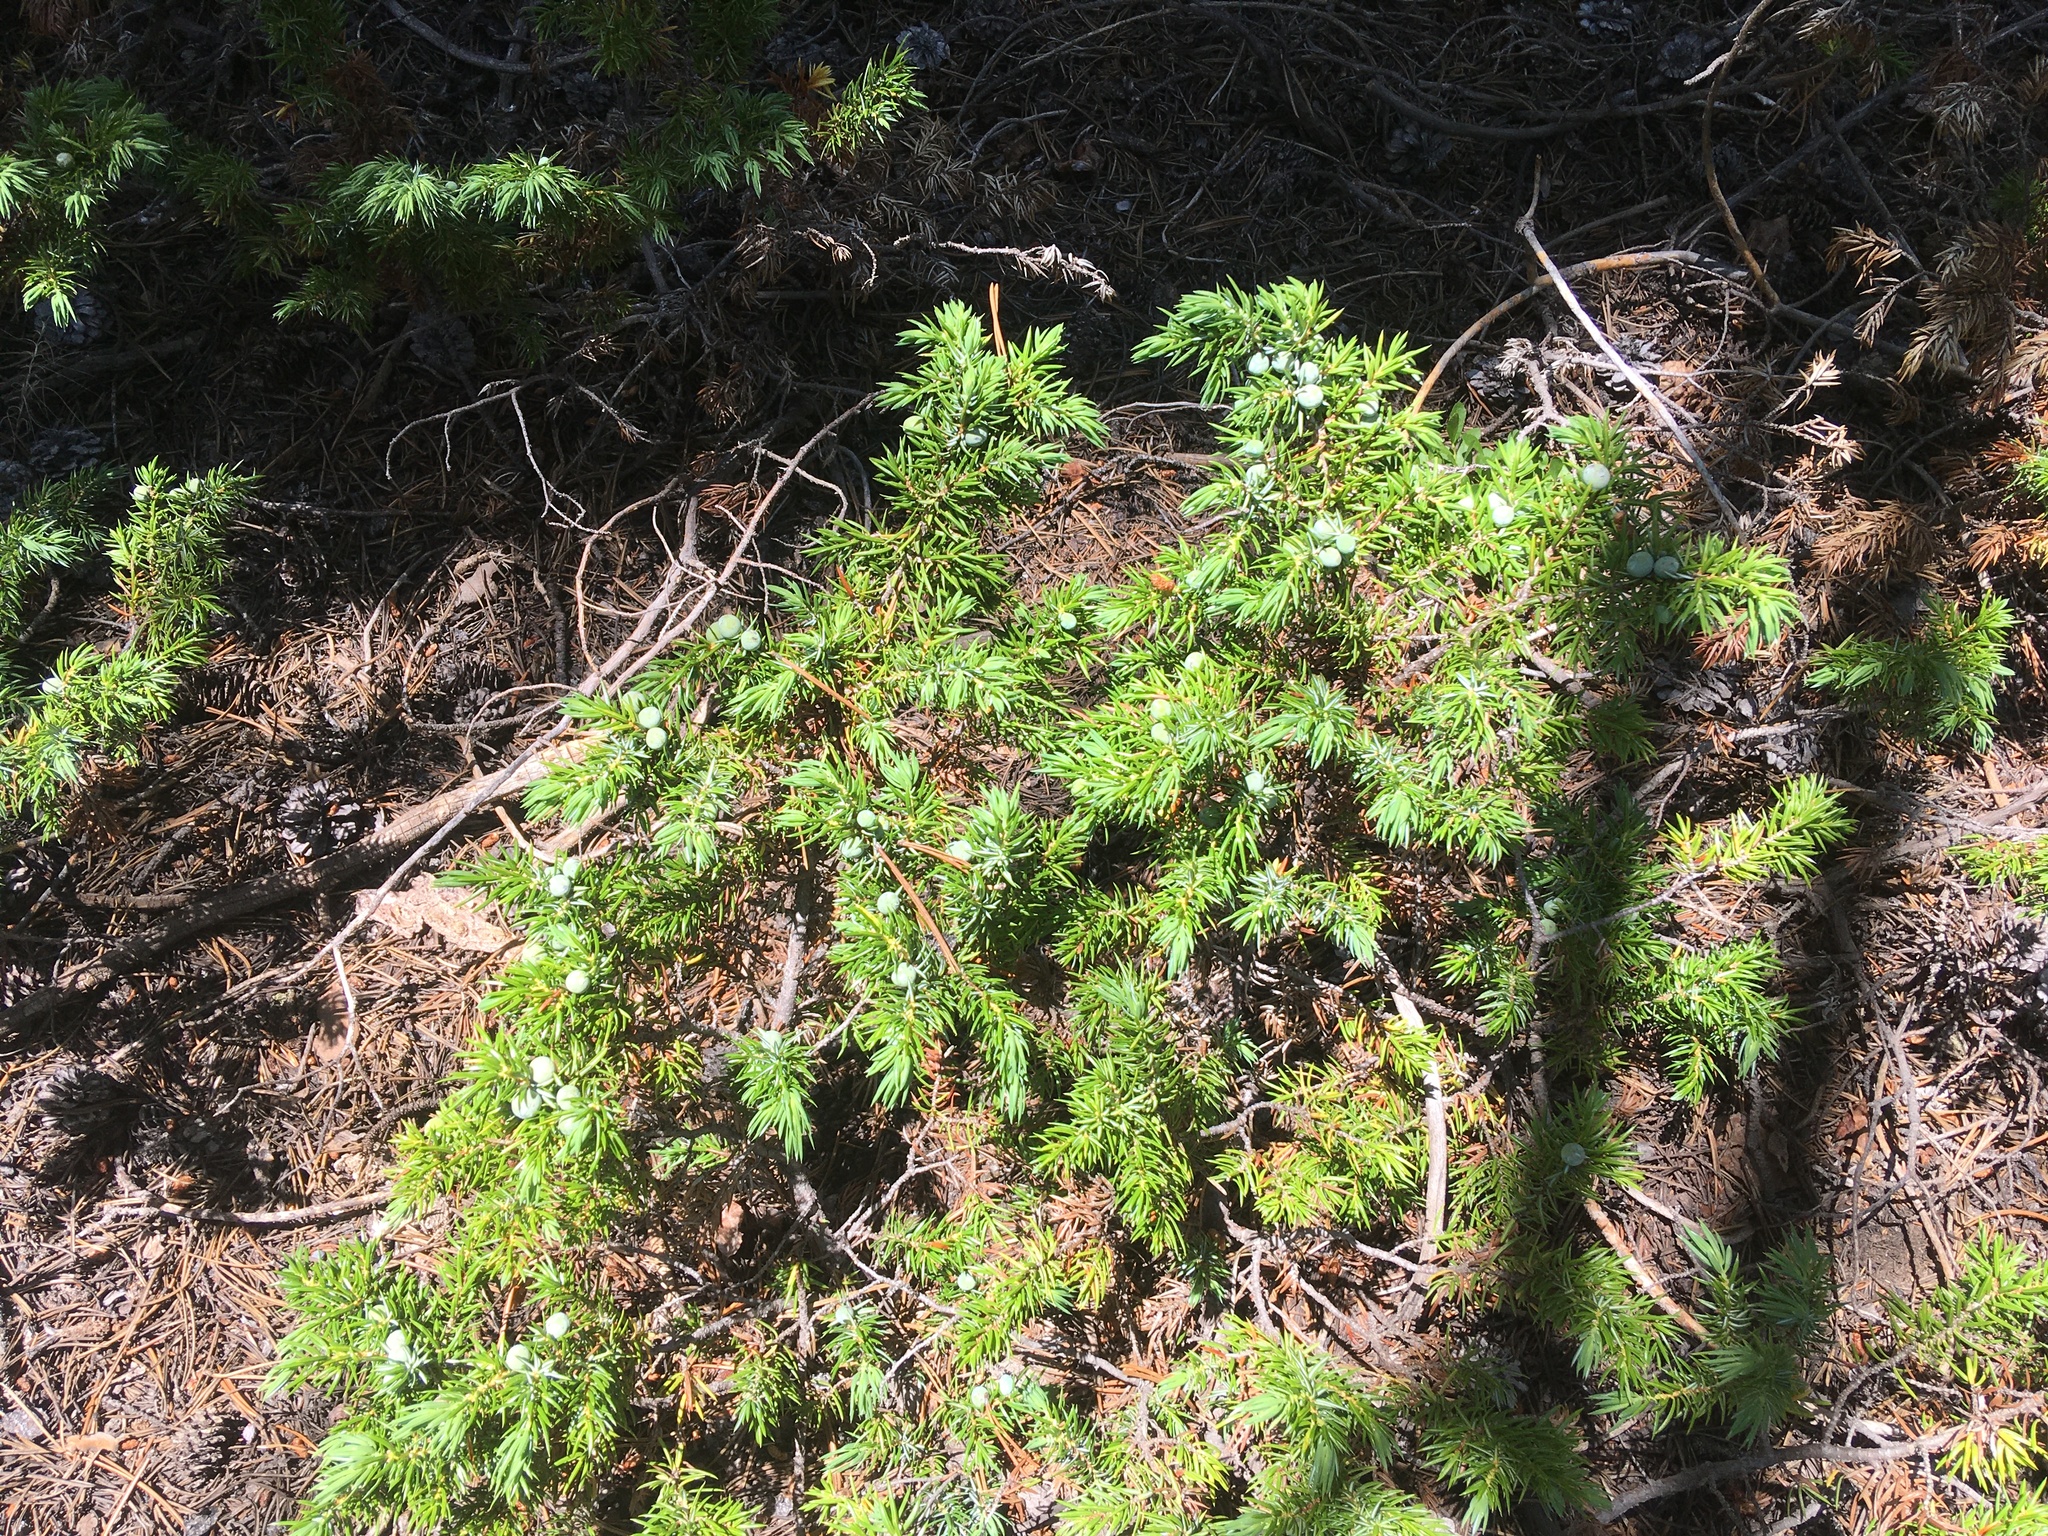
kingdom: Plantae
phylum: Tracheophyta
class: Pinopsida
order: Pinales
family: Cupressaceae
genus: Juniperus
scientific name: Juniperus communis
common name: Common juniper
